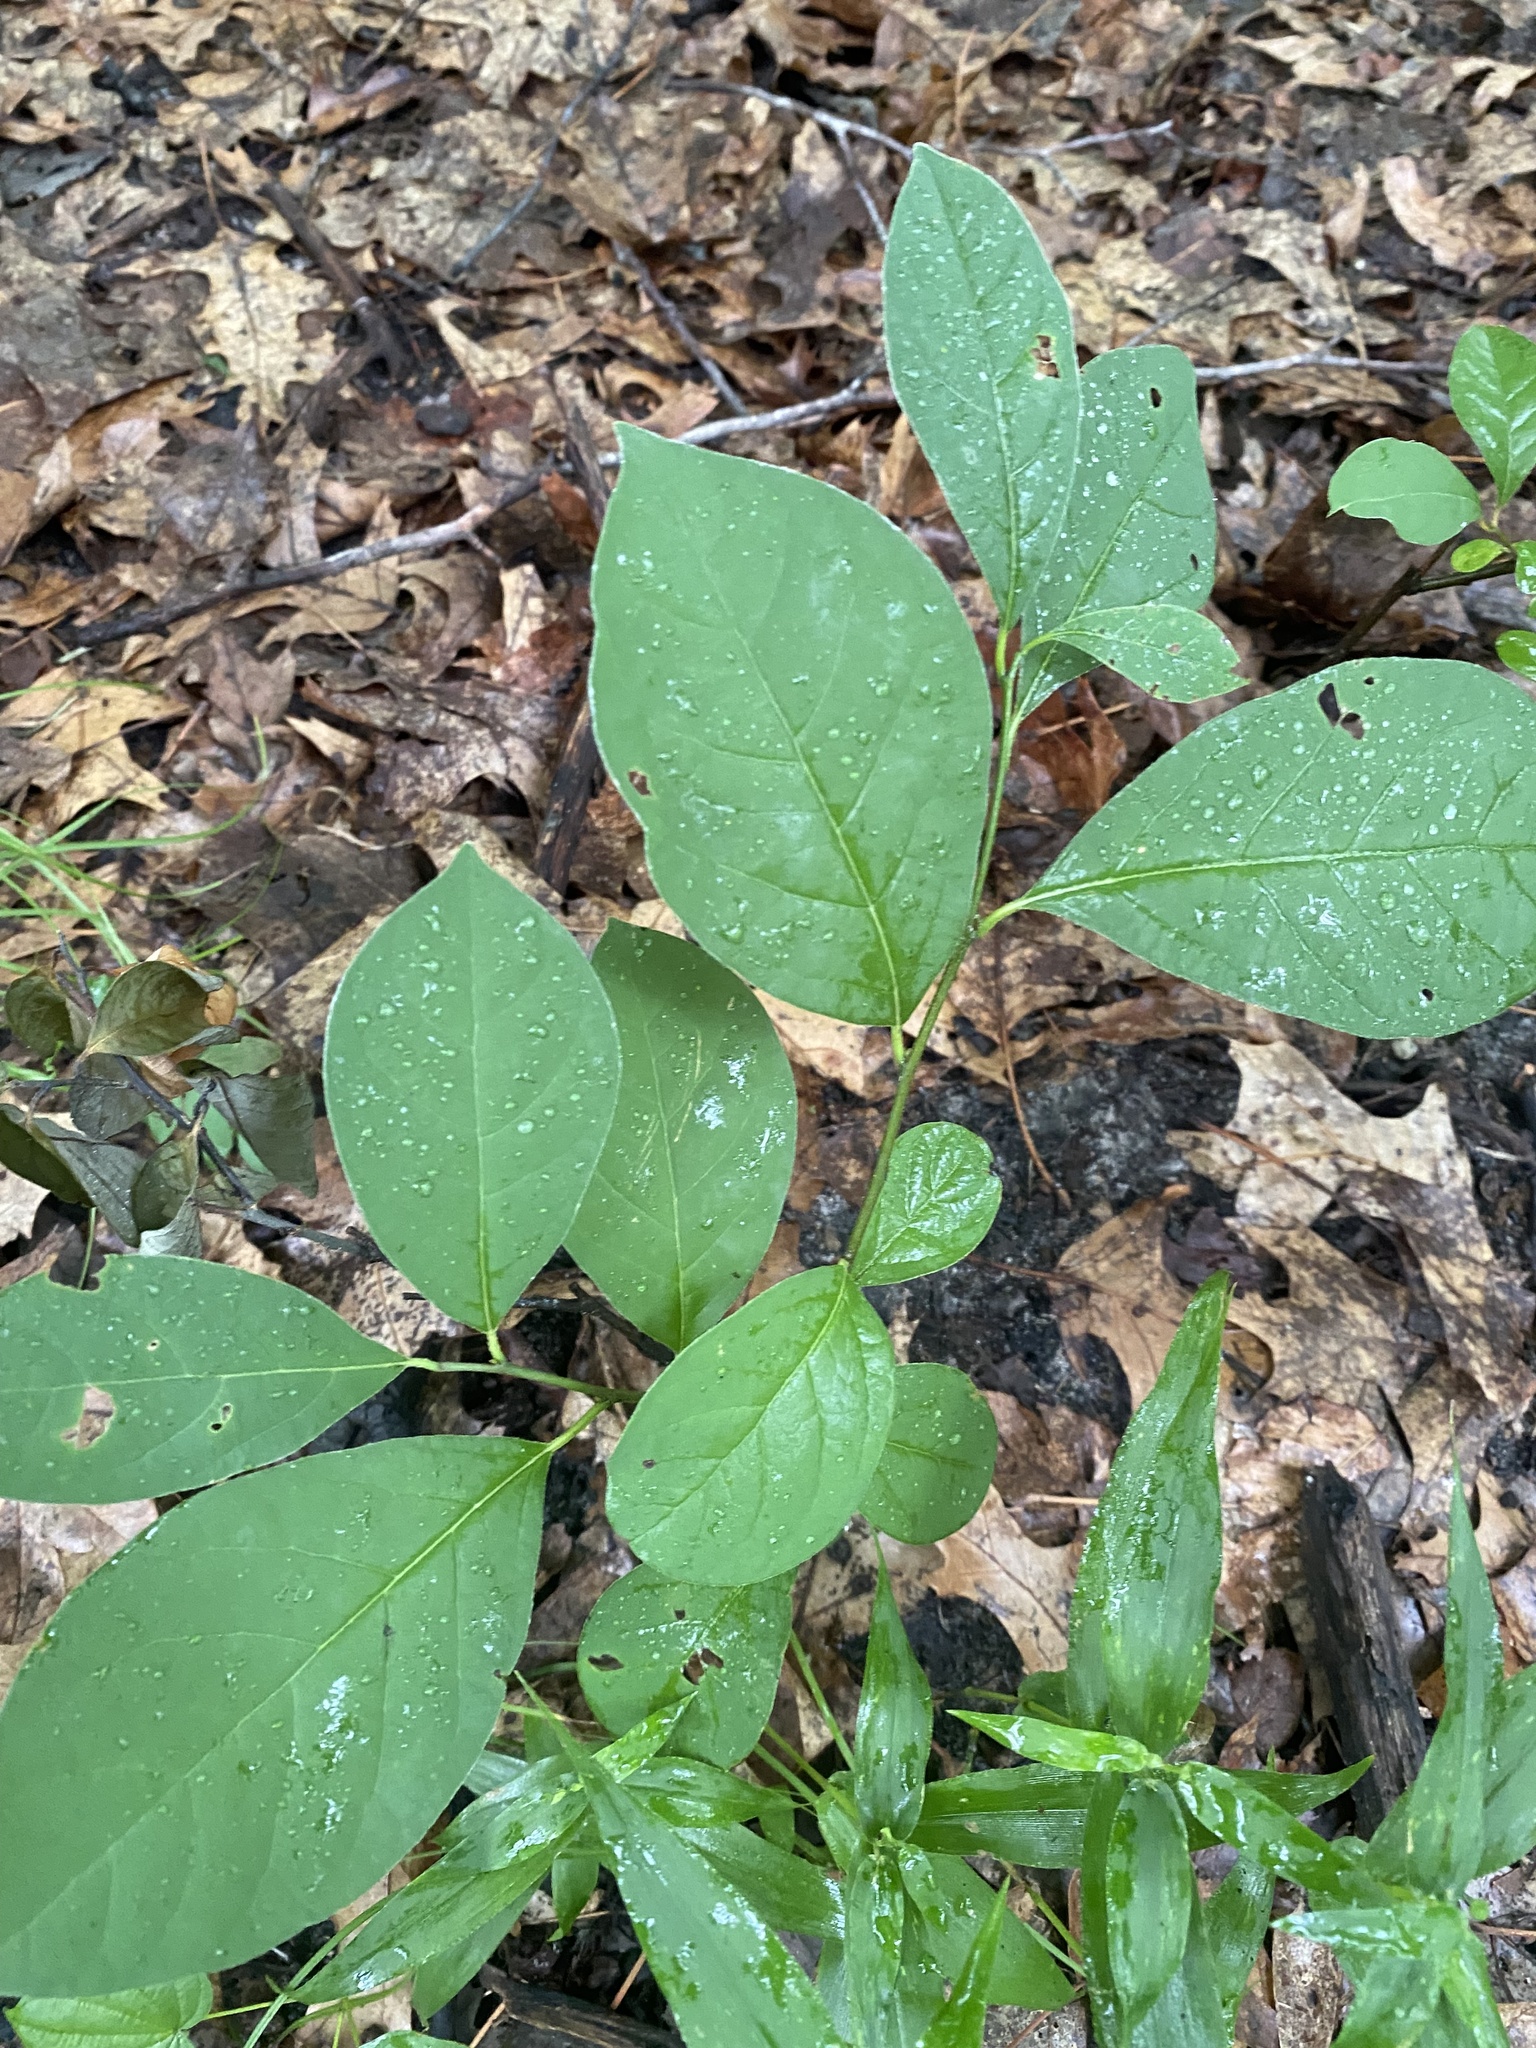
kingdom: Plantae
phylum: Tracheophyta
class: Magnoliopsida
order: Laurales
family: Lauraceae
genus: Lindera
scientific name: Lindera benzoin
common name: Spicebush
